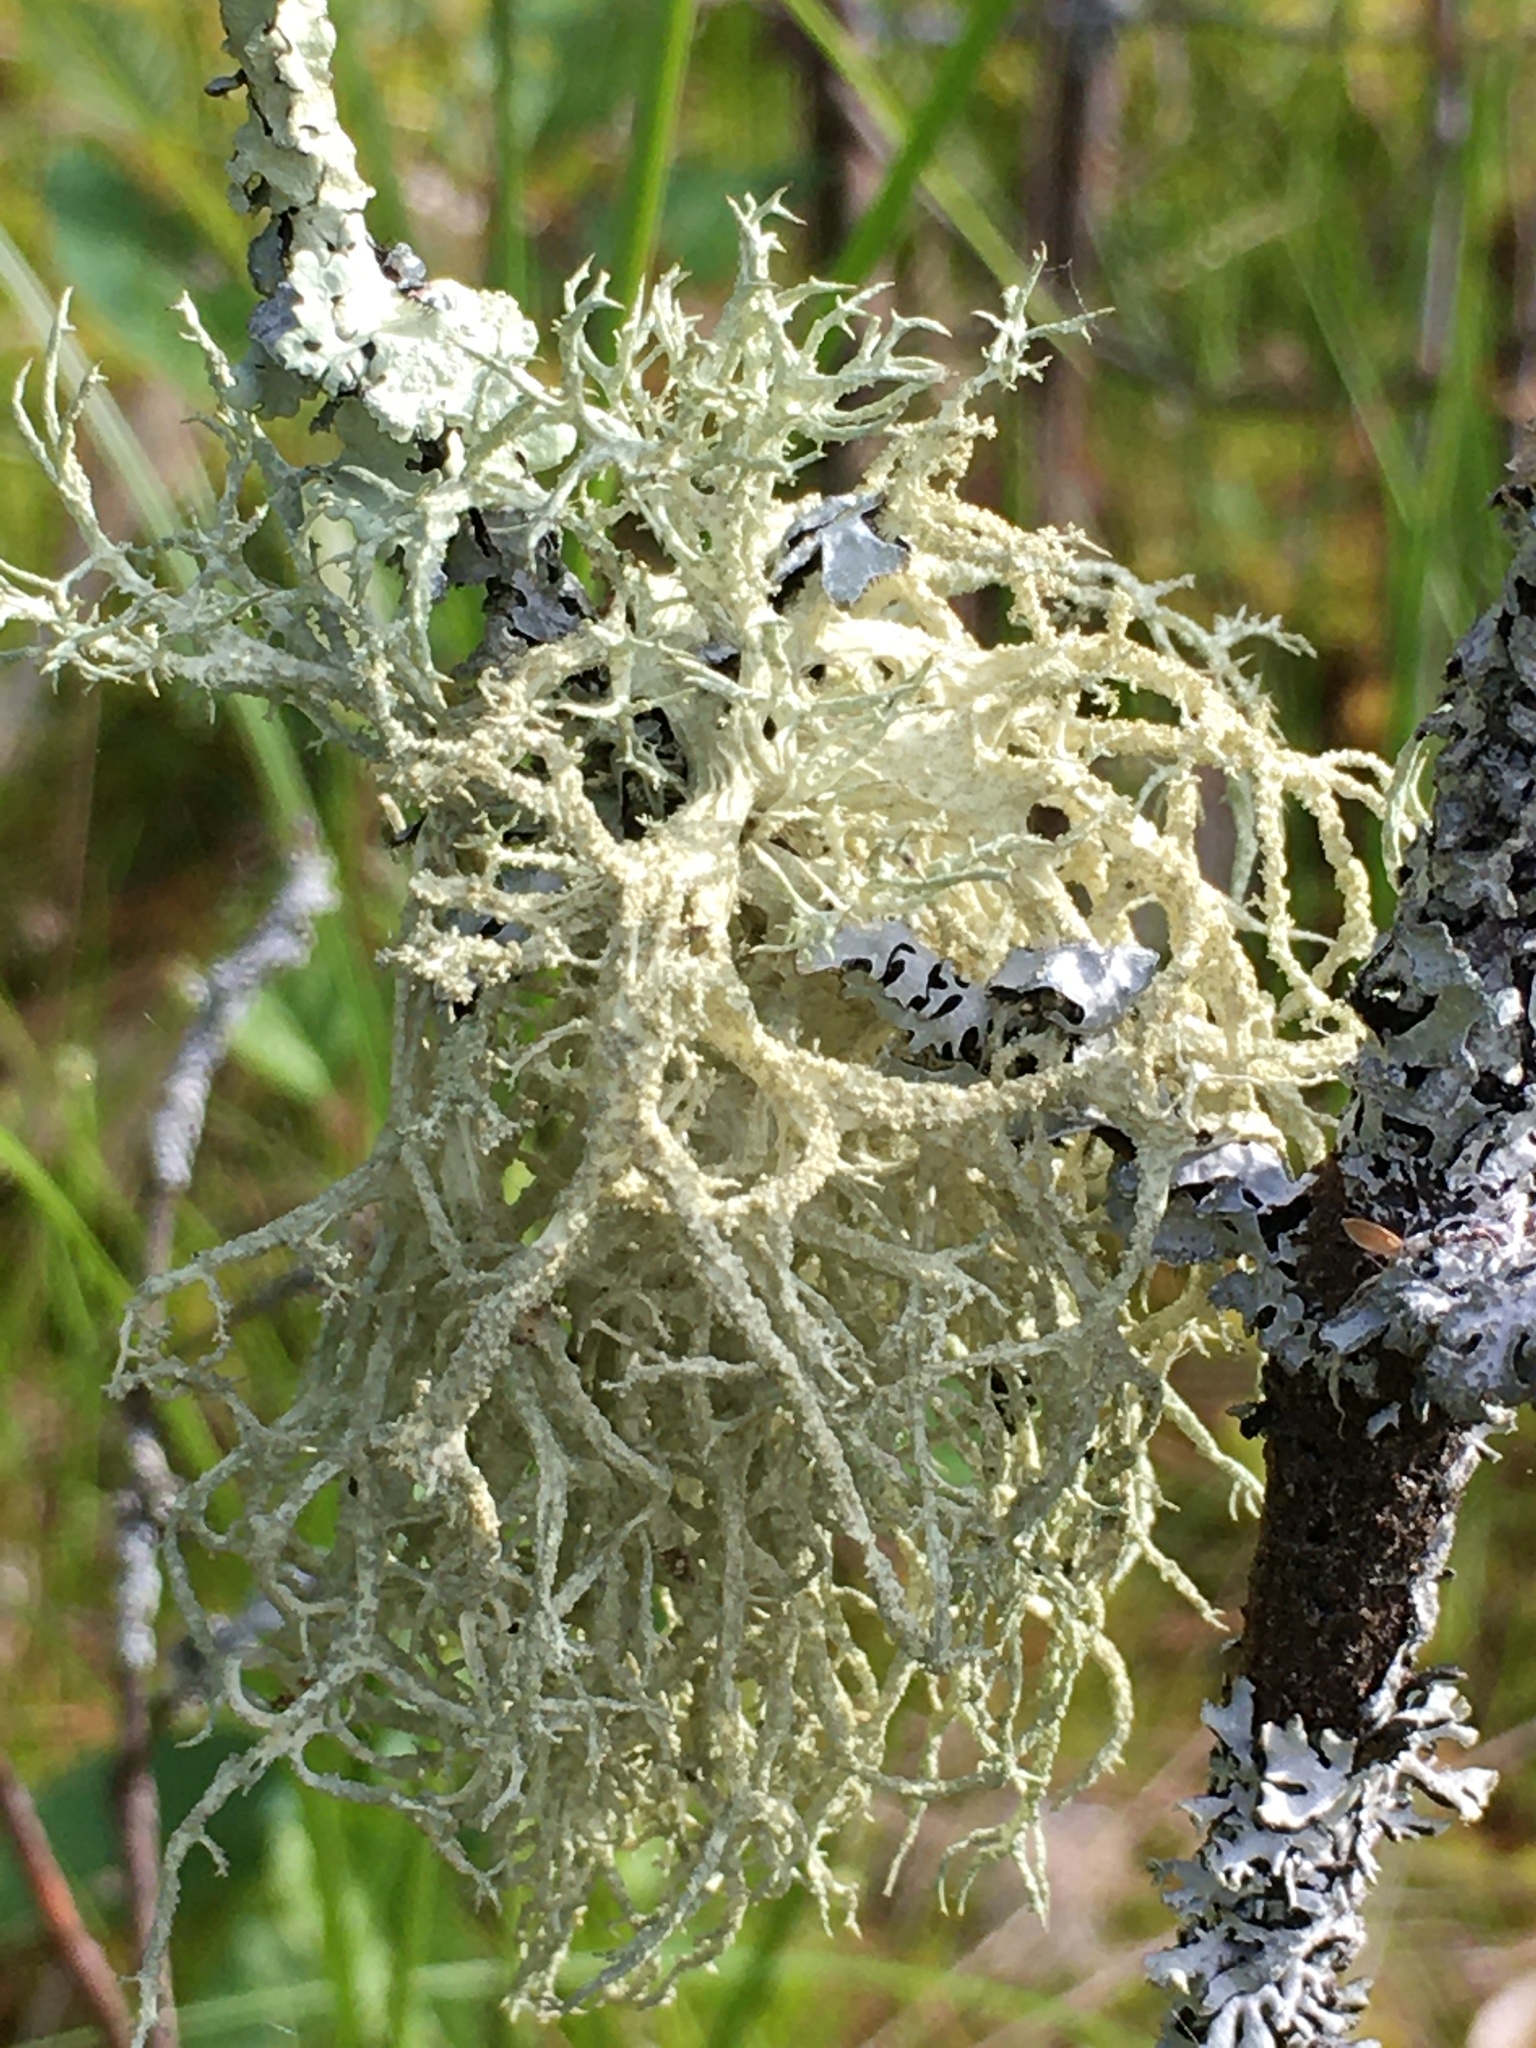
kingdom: Fungi
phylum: Ascomycota
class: Lecanoromycetes
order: Lecanorales
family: Parmeliaceae
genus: Evernia
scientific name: Evernia mesomorpha
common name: Boreal oak moss lichen
